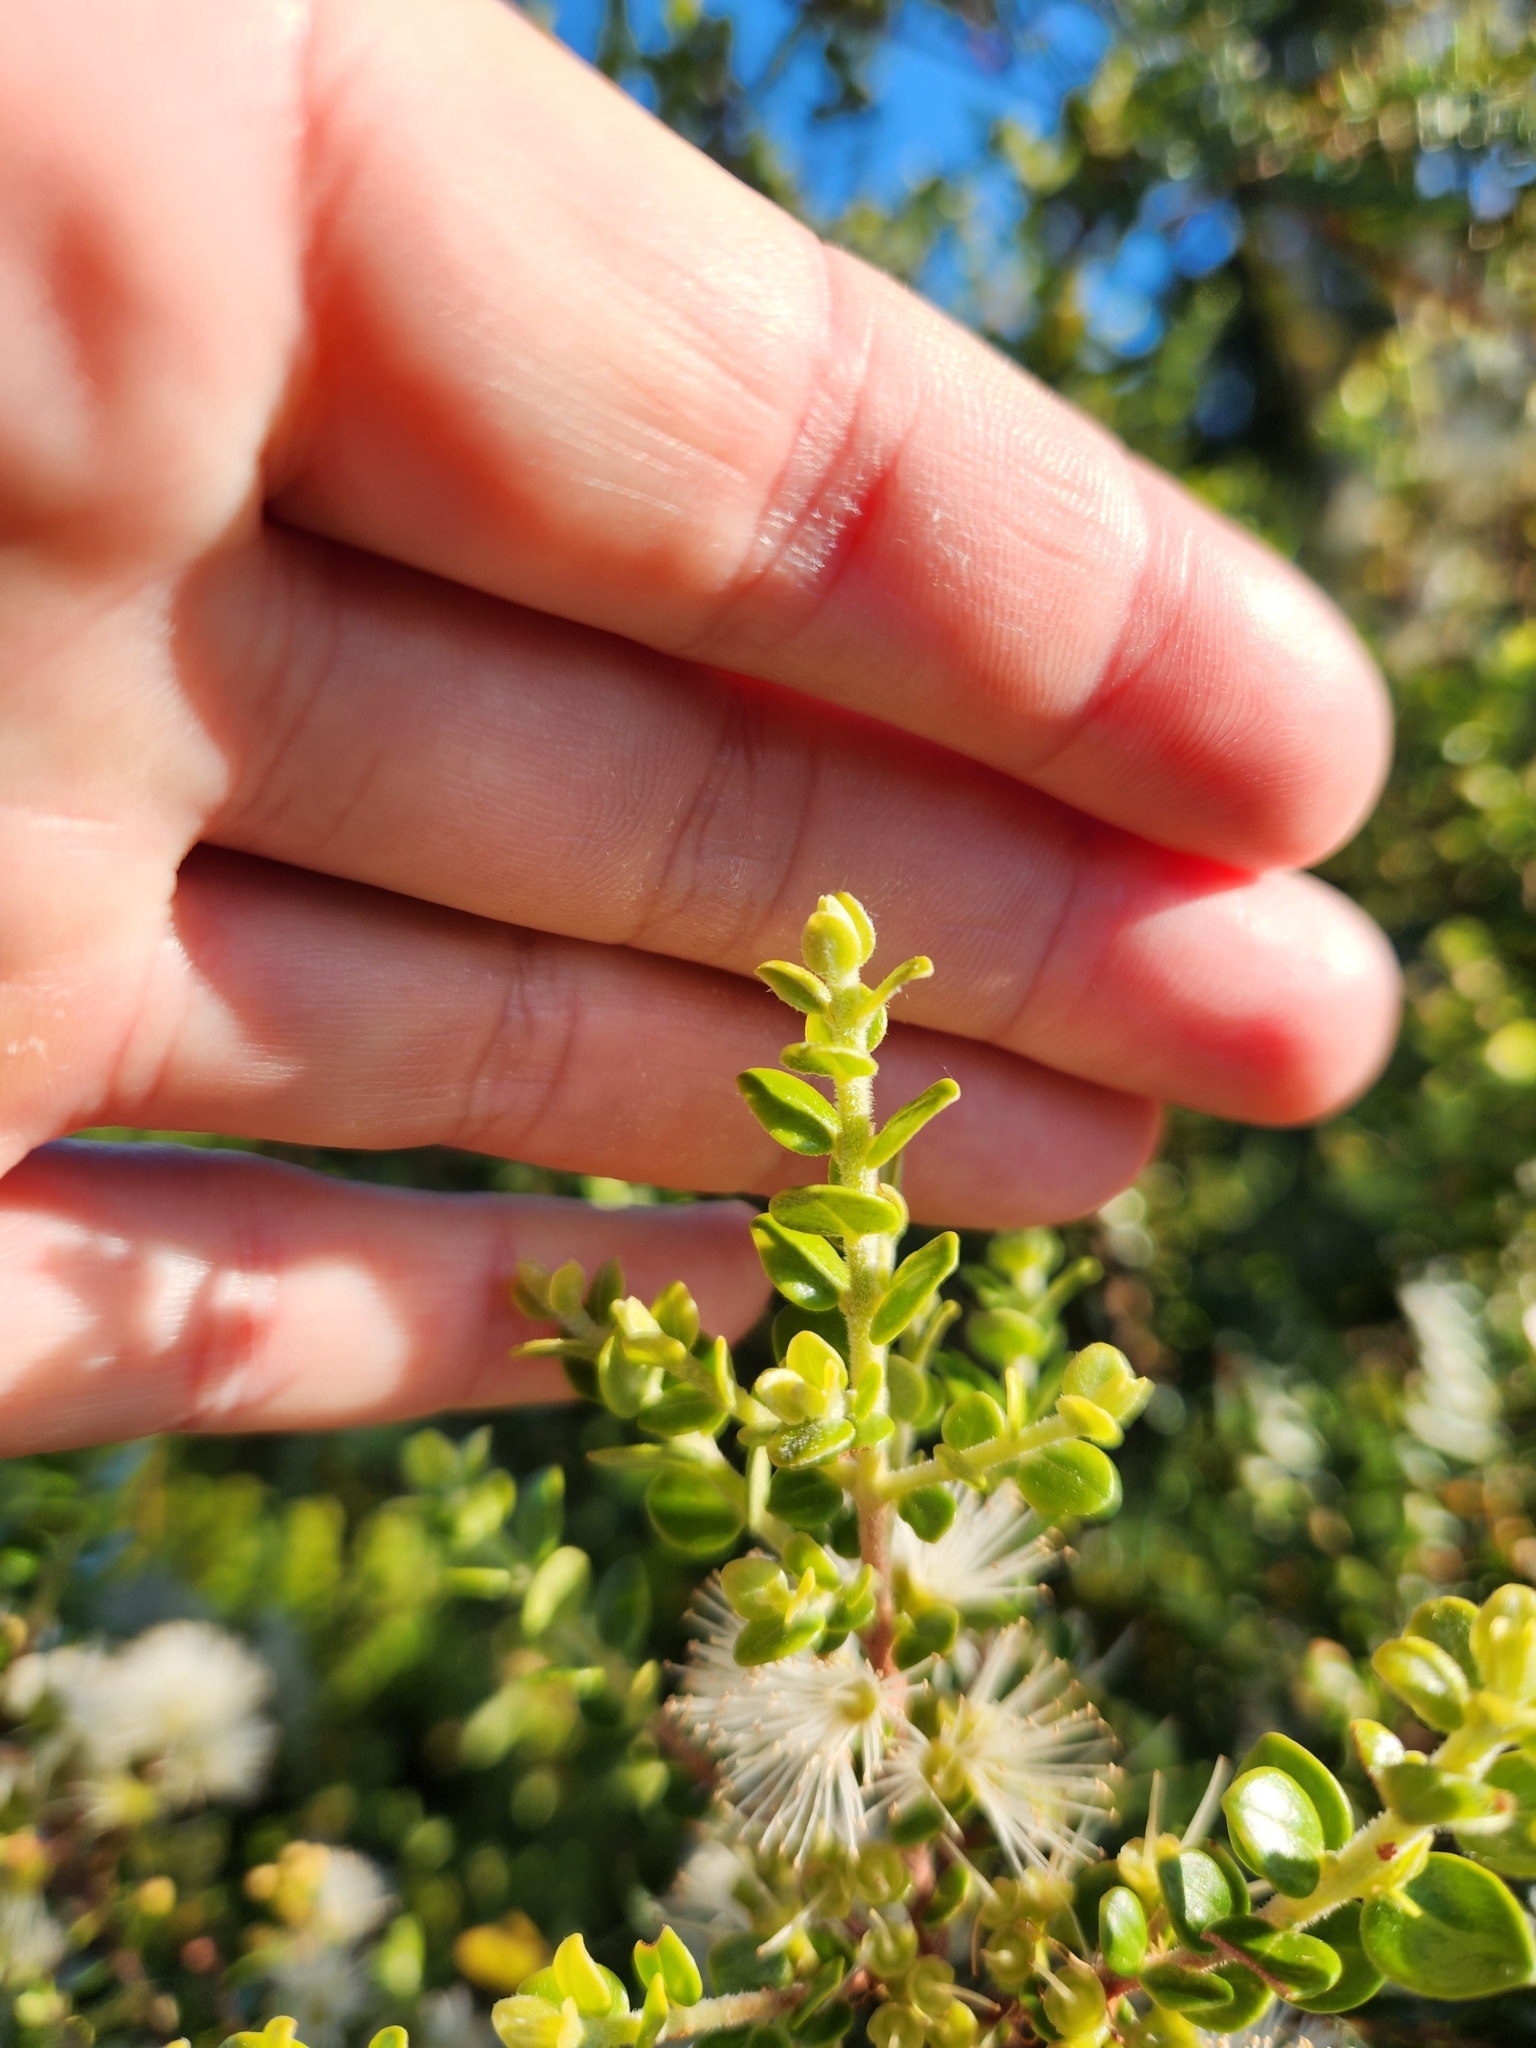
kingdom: Plantae
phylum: Tracheophyta
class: Magnoliopsida
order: Myrtales
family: Myrtaceae
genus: Metrosideros
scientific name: Metrosideros perforata
